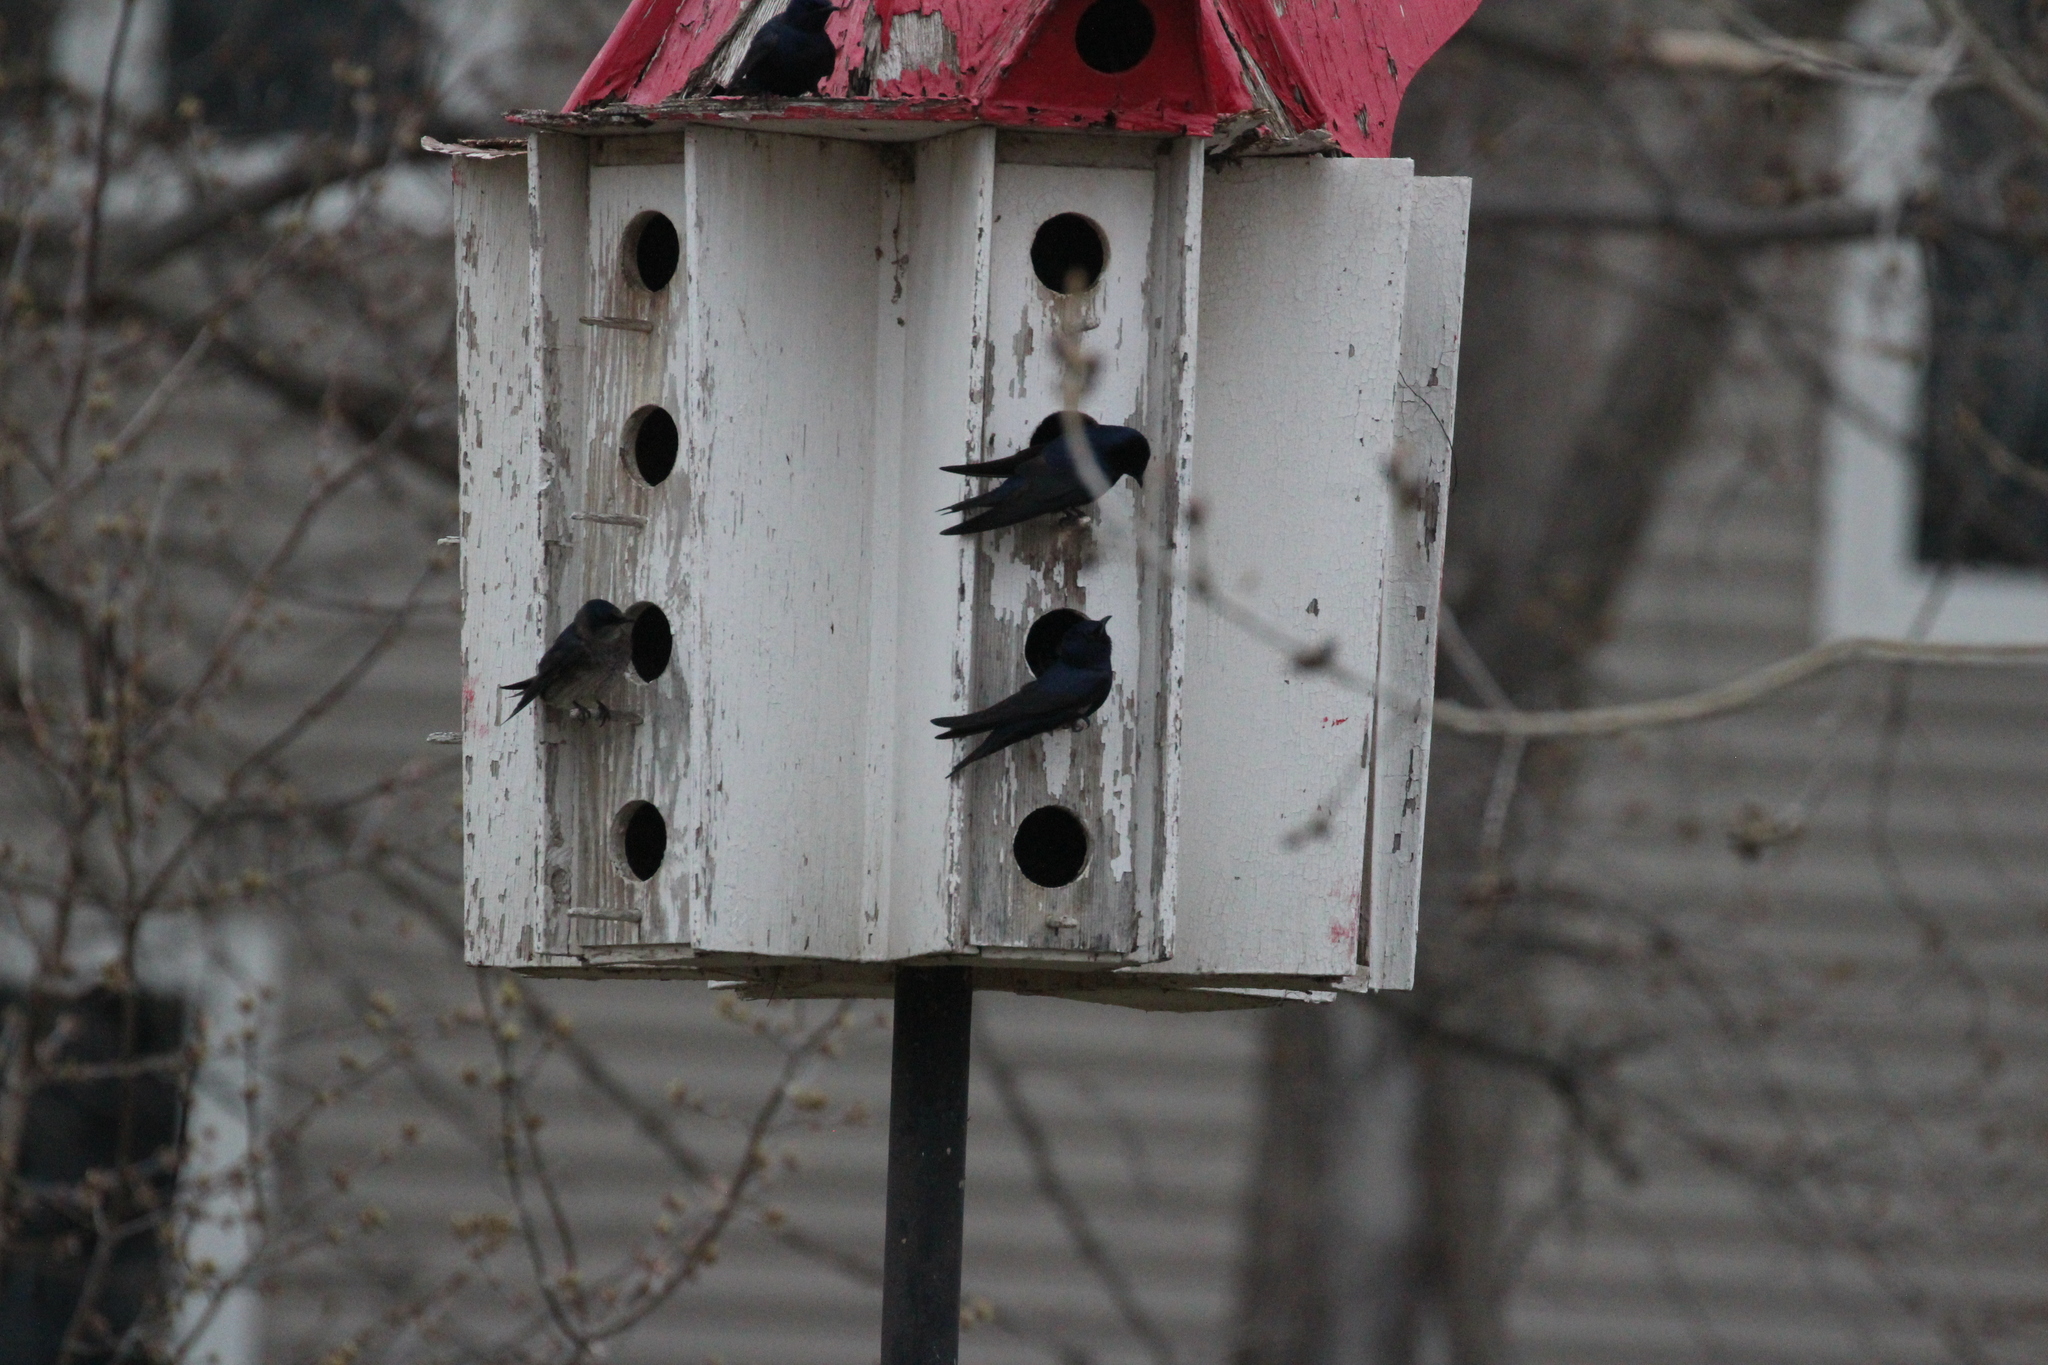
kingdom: Animalia
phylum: Chordata
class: Aves
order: Passeriformes
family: Hirundinidae
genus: Progne
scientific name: Progne subis
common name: Purple martin
